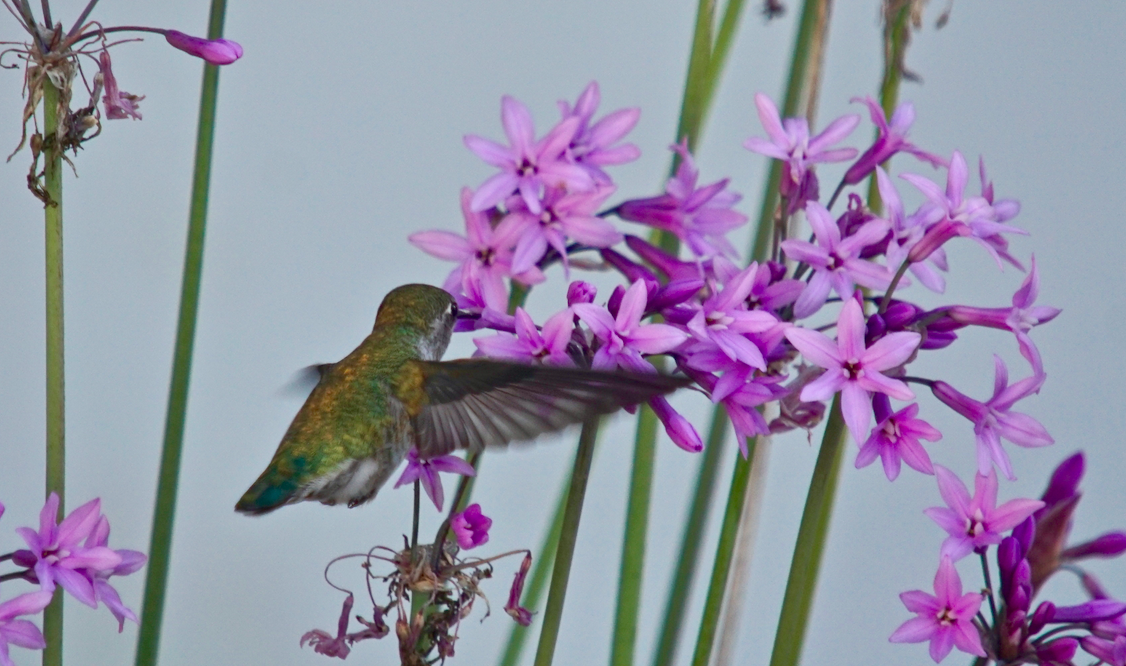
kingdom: Animalia
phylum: Chordata
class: Aves
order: Apodiformes
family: Trochilidae
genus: Calypte
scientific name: Calypte anna
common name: Anna's hummingbird
